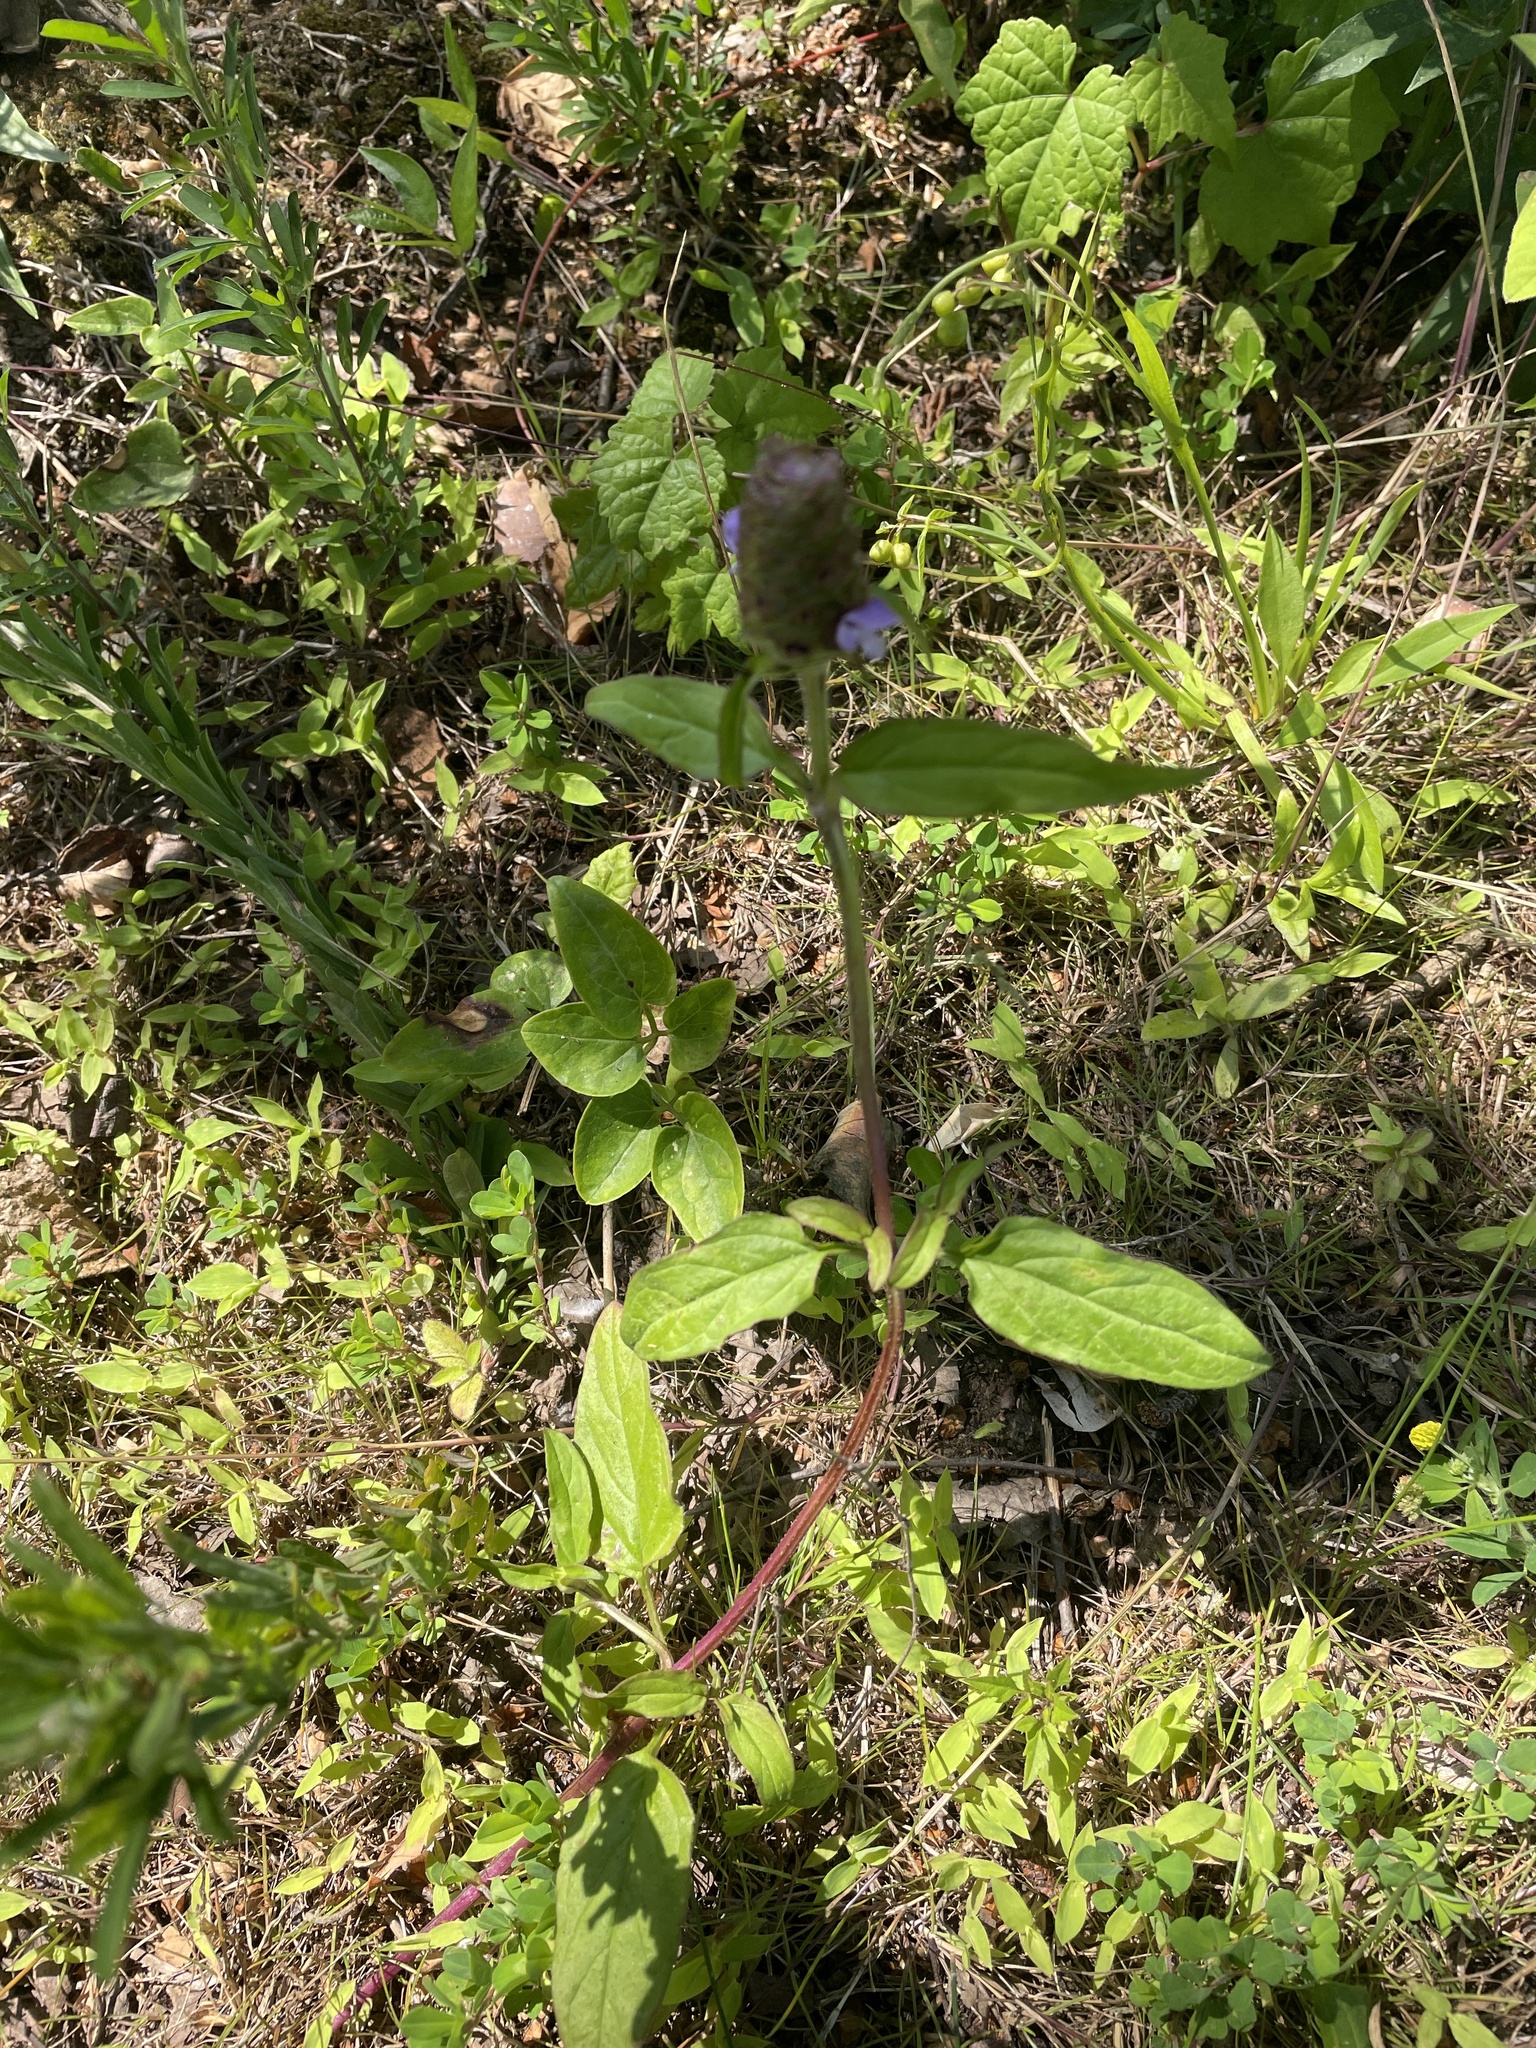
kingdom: Plantae
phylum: Tracheophyta
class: Magnoliopsida
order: Lamiales
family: Lamiaceae
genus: Prunella
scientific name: Prunella vulgaris
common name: Heal-all
